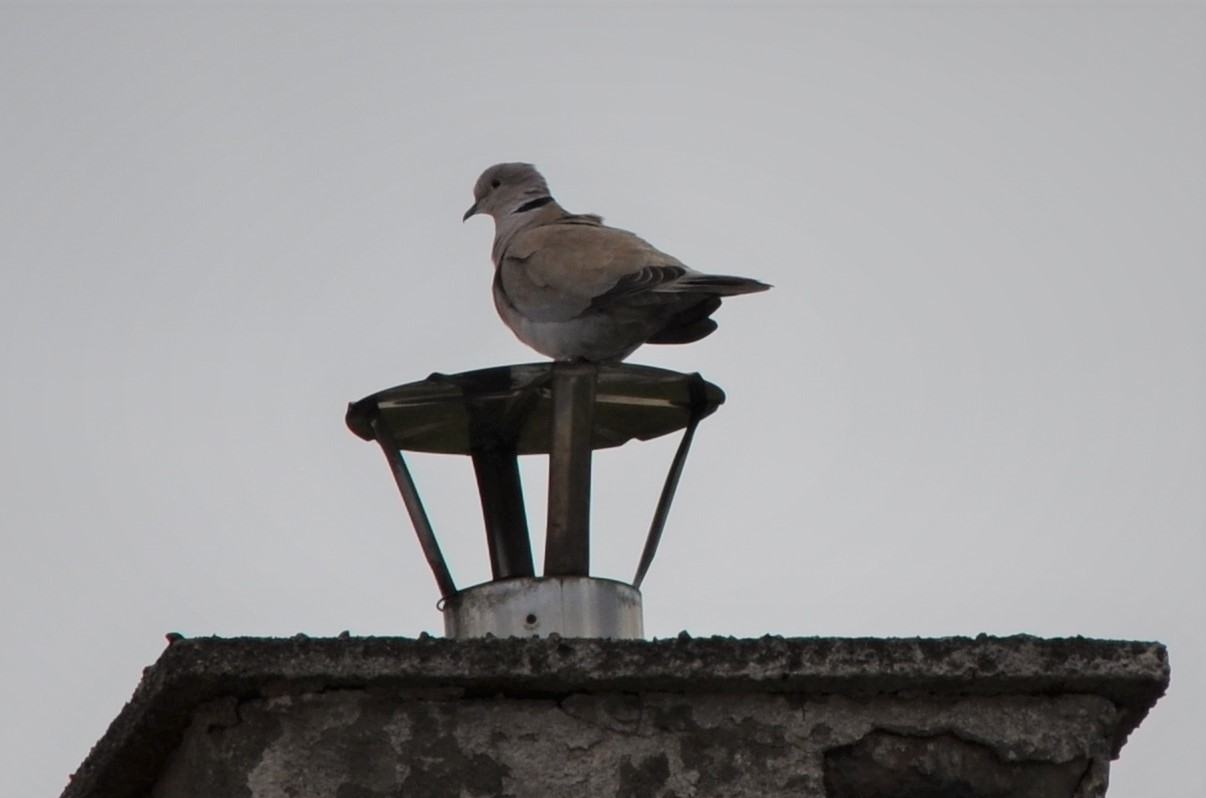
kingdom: Animalia
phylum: Chordata
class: Aves
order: Columbiformes
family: Columbidae
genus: Streptopelia
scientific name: Streptopelia decaocto
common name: Eurasian collared dove
